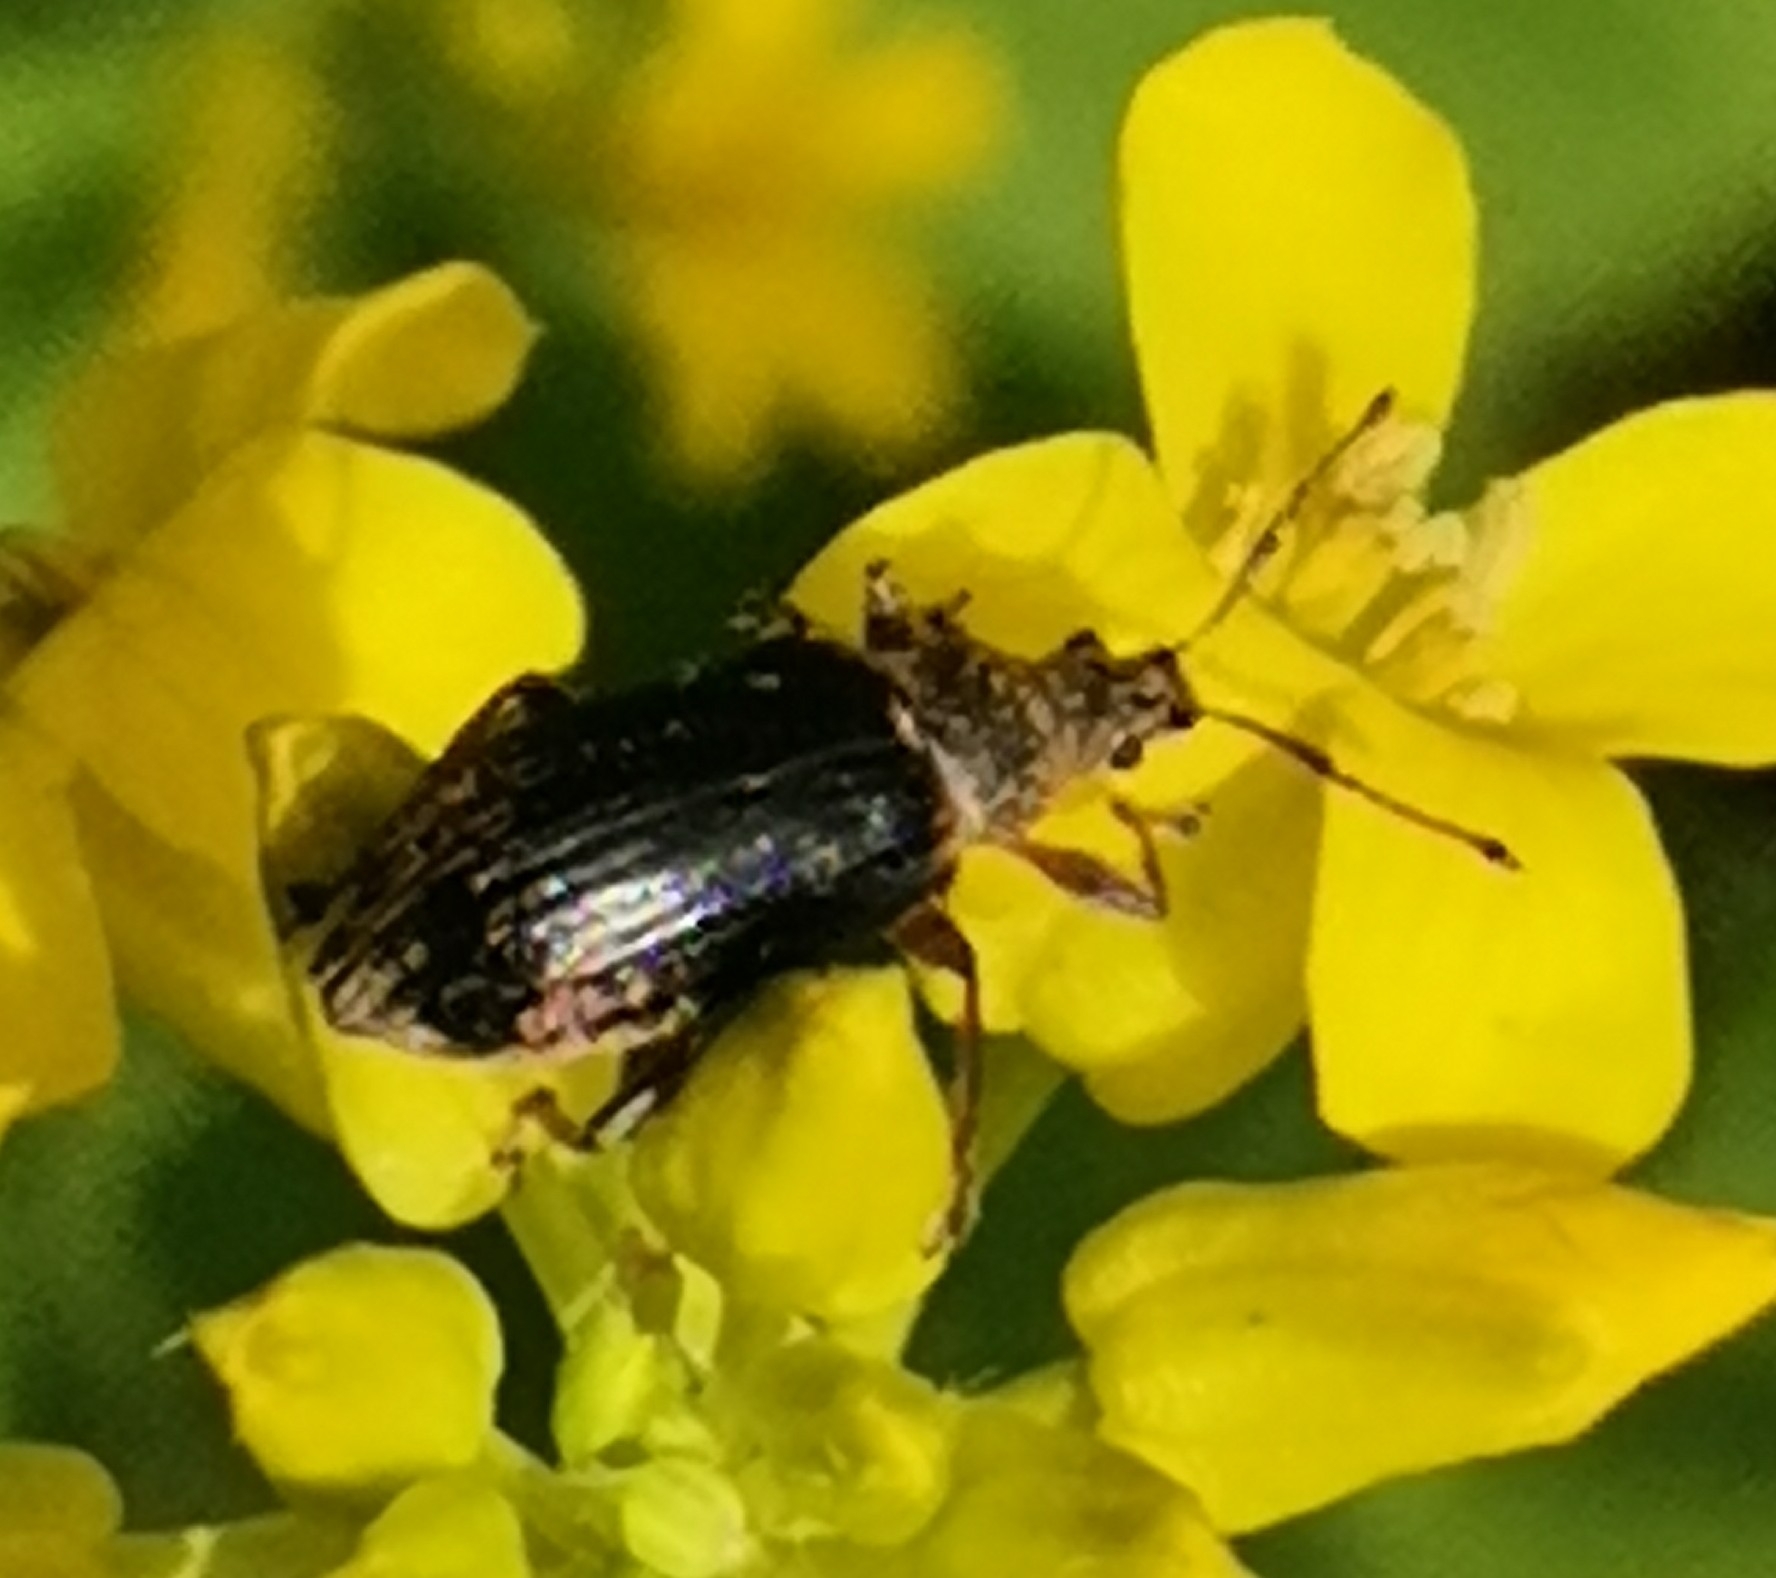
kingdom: Animalia
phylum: Arthropoda
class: Insecta
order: Coleoptera
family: Curculionidae
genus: Phyllobius
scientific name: Phyllobius pyri
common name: Common leaf weevil
